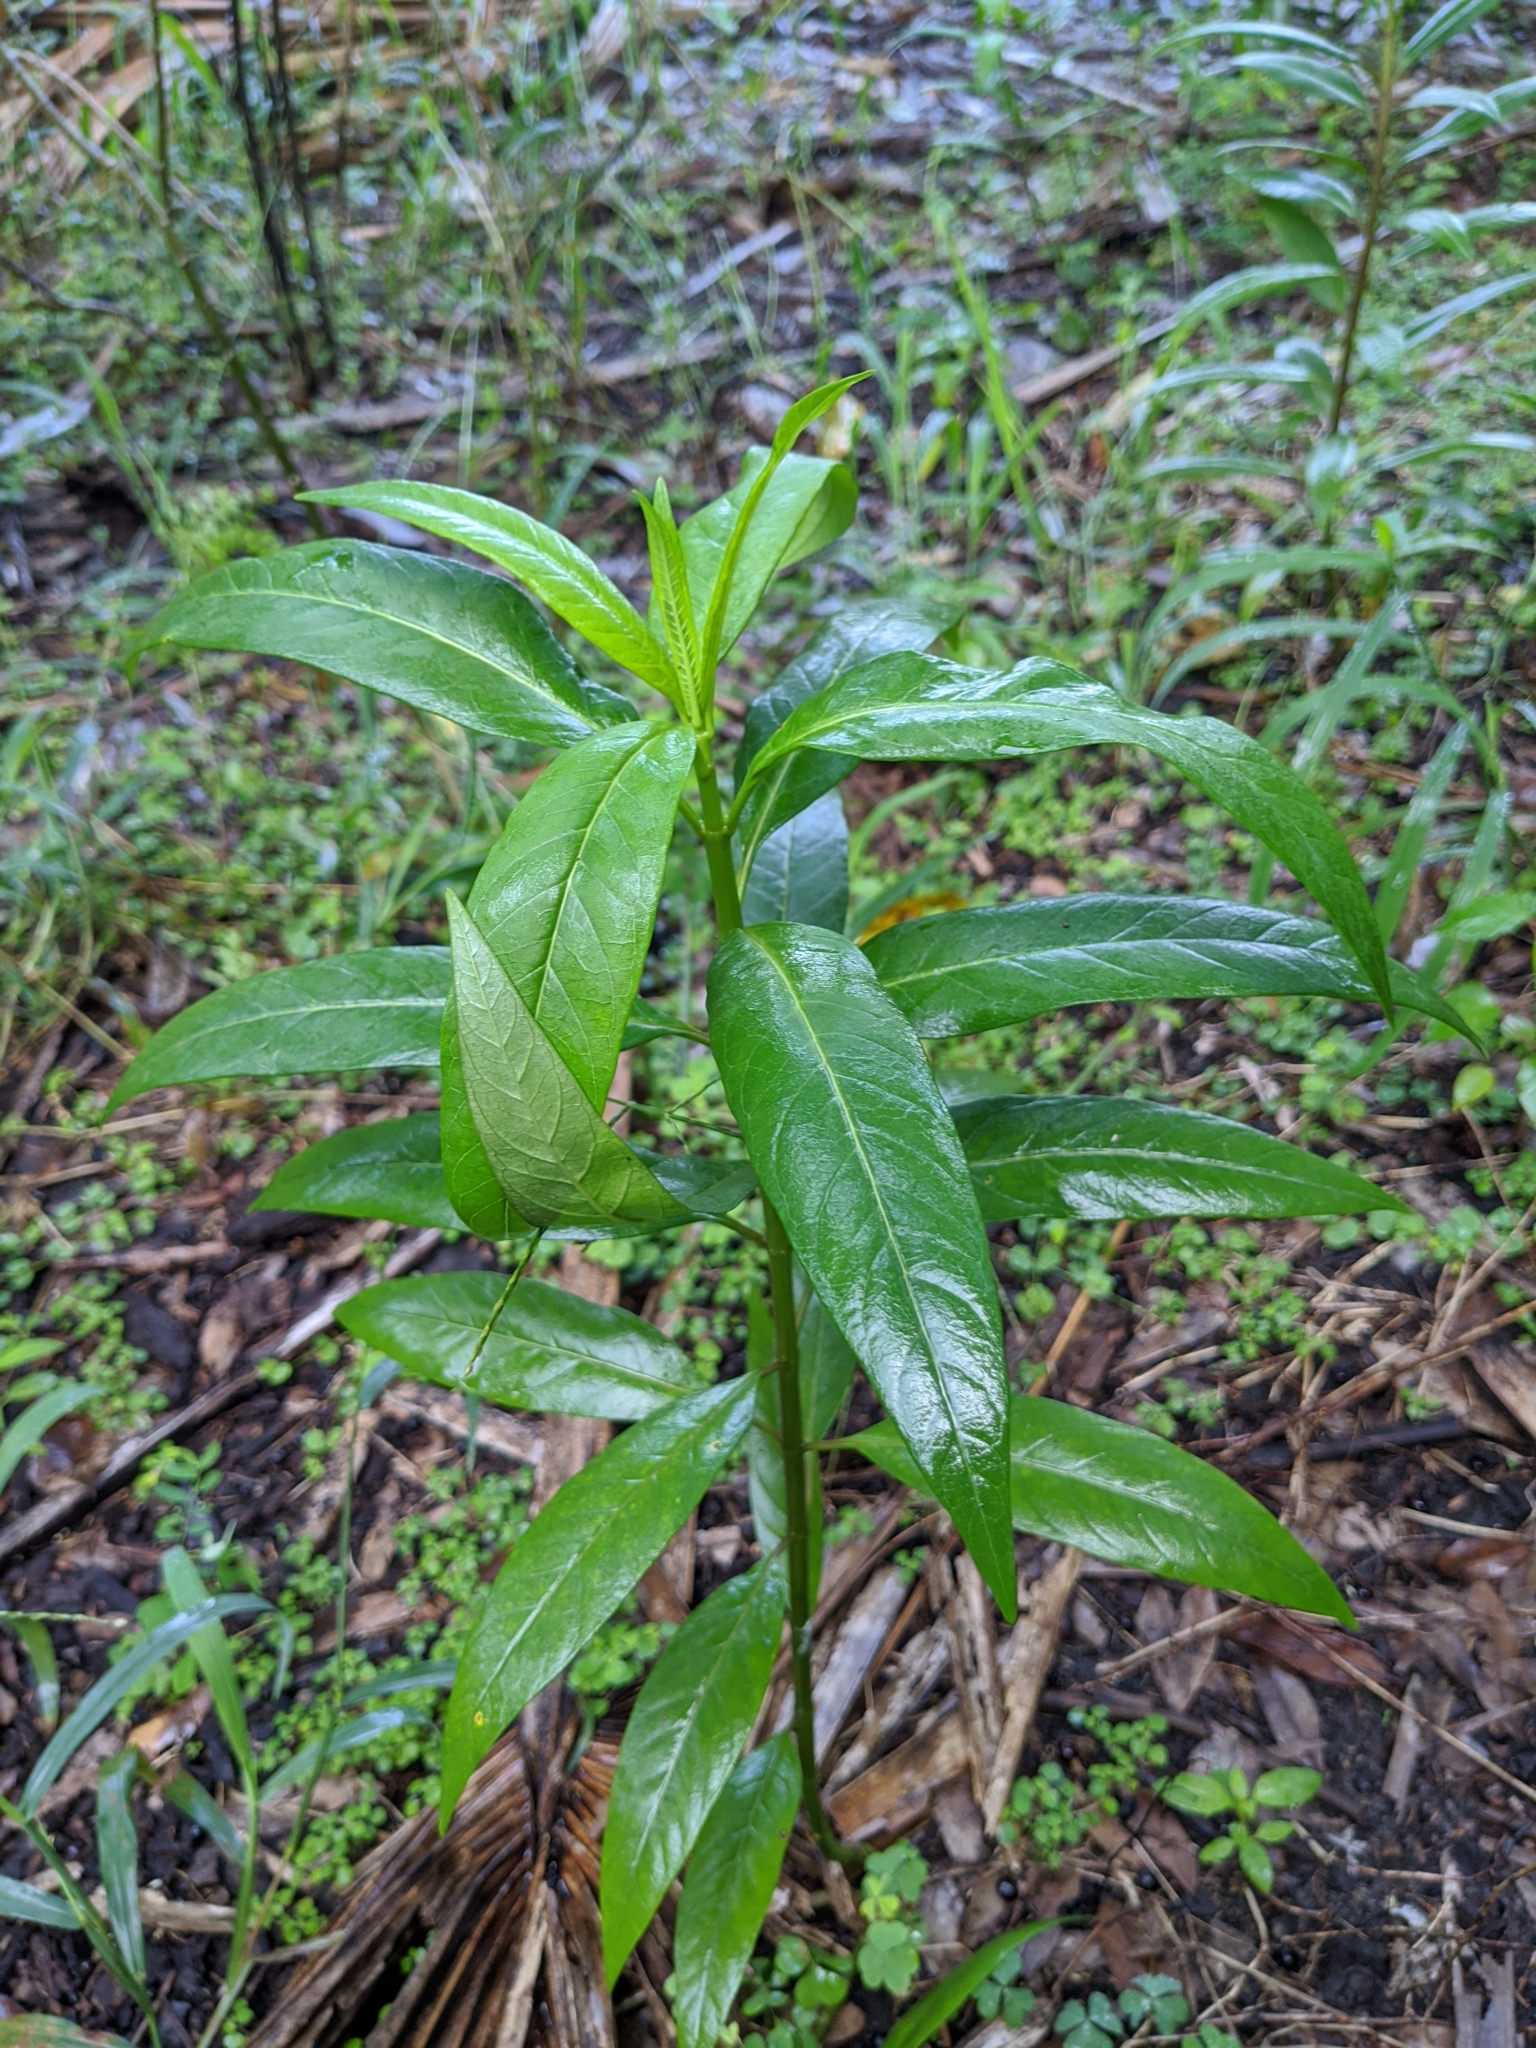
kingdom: Plantae
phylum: Tracheophyta
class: Magnoliopsida
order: Gentianales
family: Apocynaceae
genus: Asclepias
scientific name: Asclepias curassavica
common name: Bloodflower
